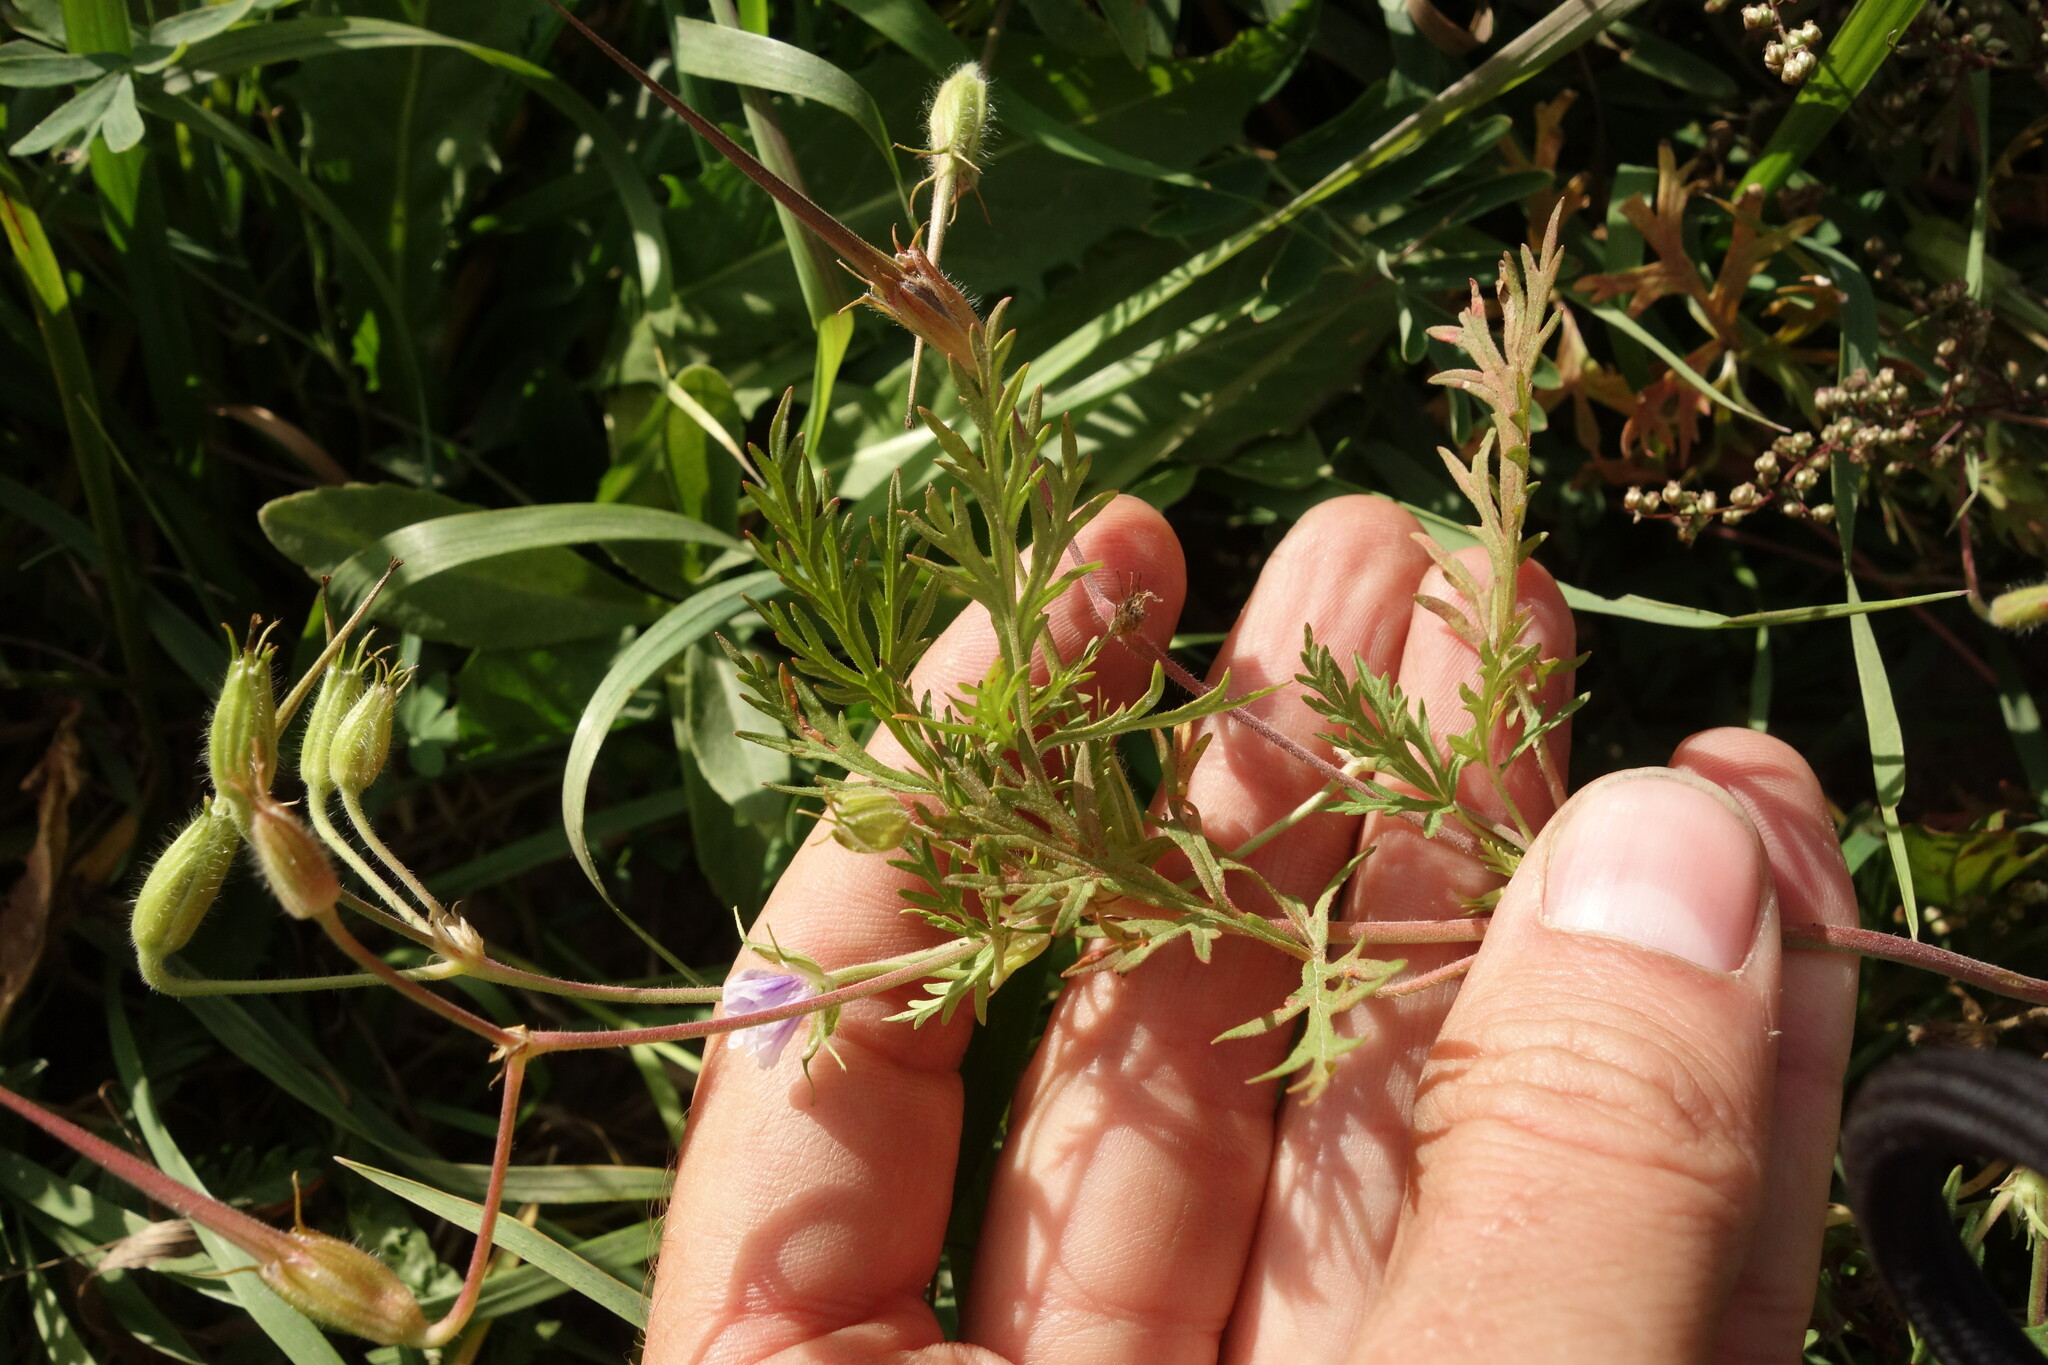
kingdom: Plantae
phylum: Tracheophyta
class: Magnoliopsida
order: Geraniales
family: Geraniaceae
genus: Erodium
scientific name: Erodium stephanianum
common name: Stephen's stork's bill
